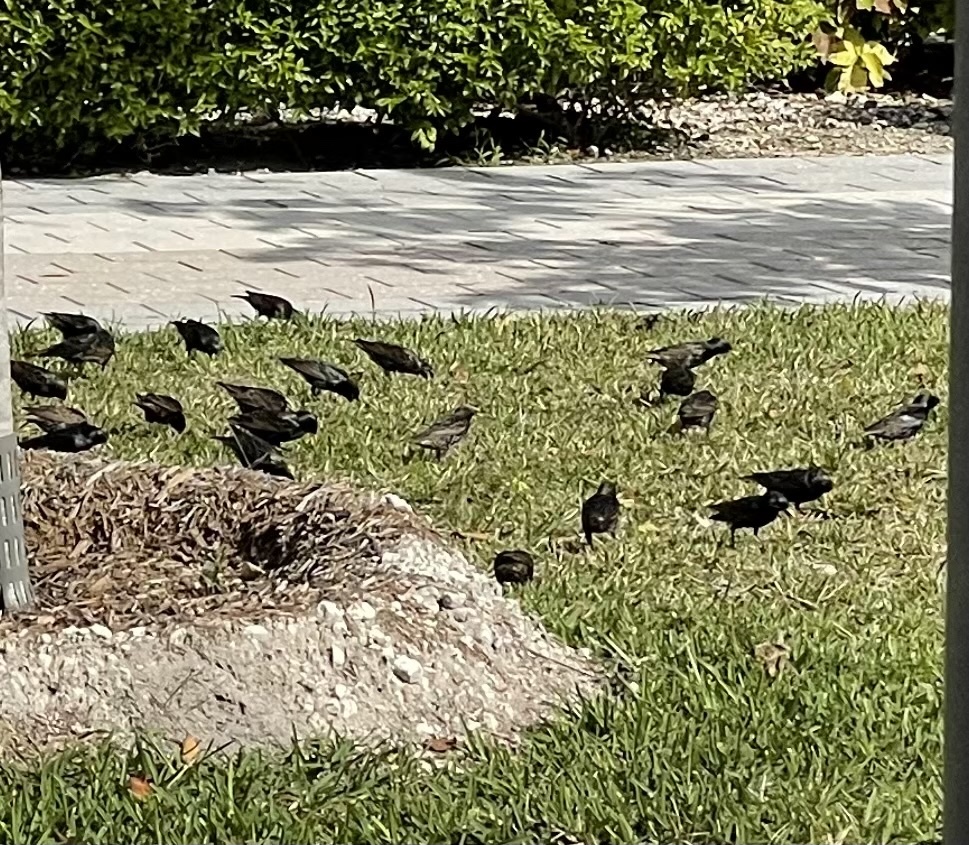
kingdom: Animalia
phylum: Chordata
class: Aves
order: Passeriformes
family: Sturnidae
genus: Sturnus
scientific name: Sturnus vulgaris
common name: Common starling
